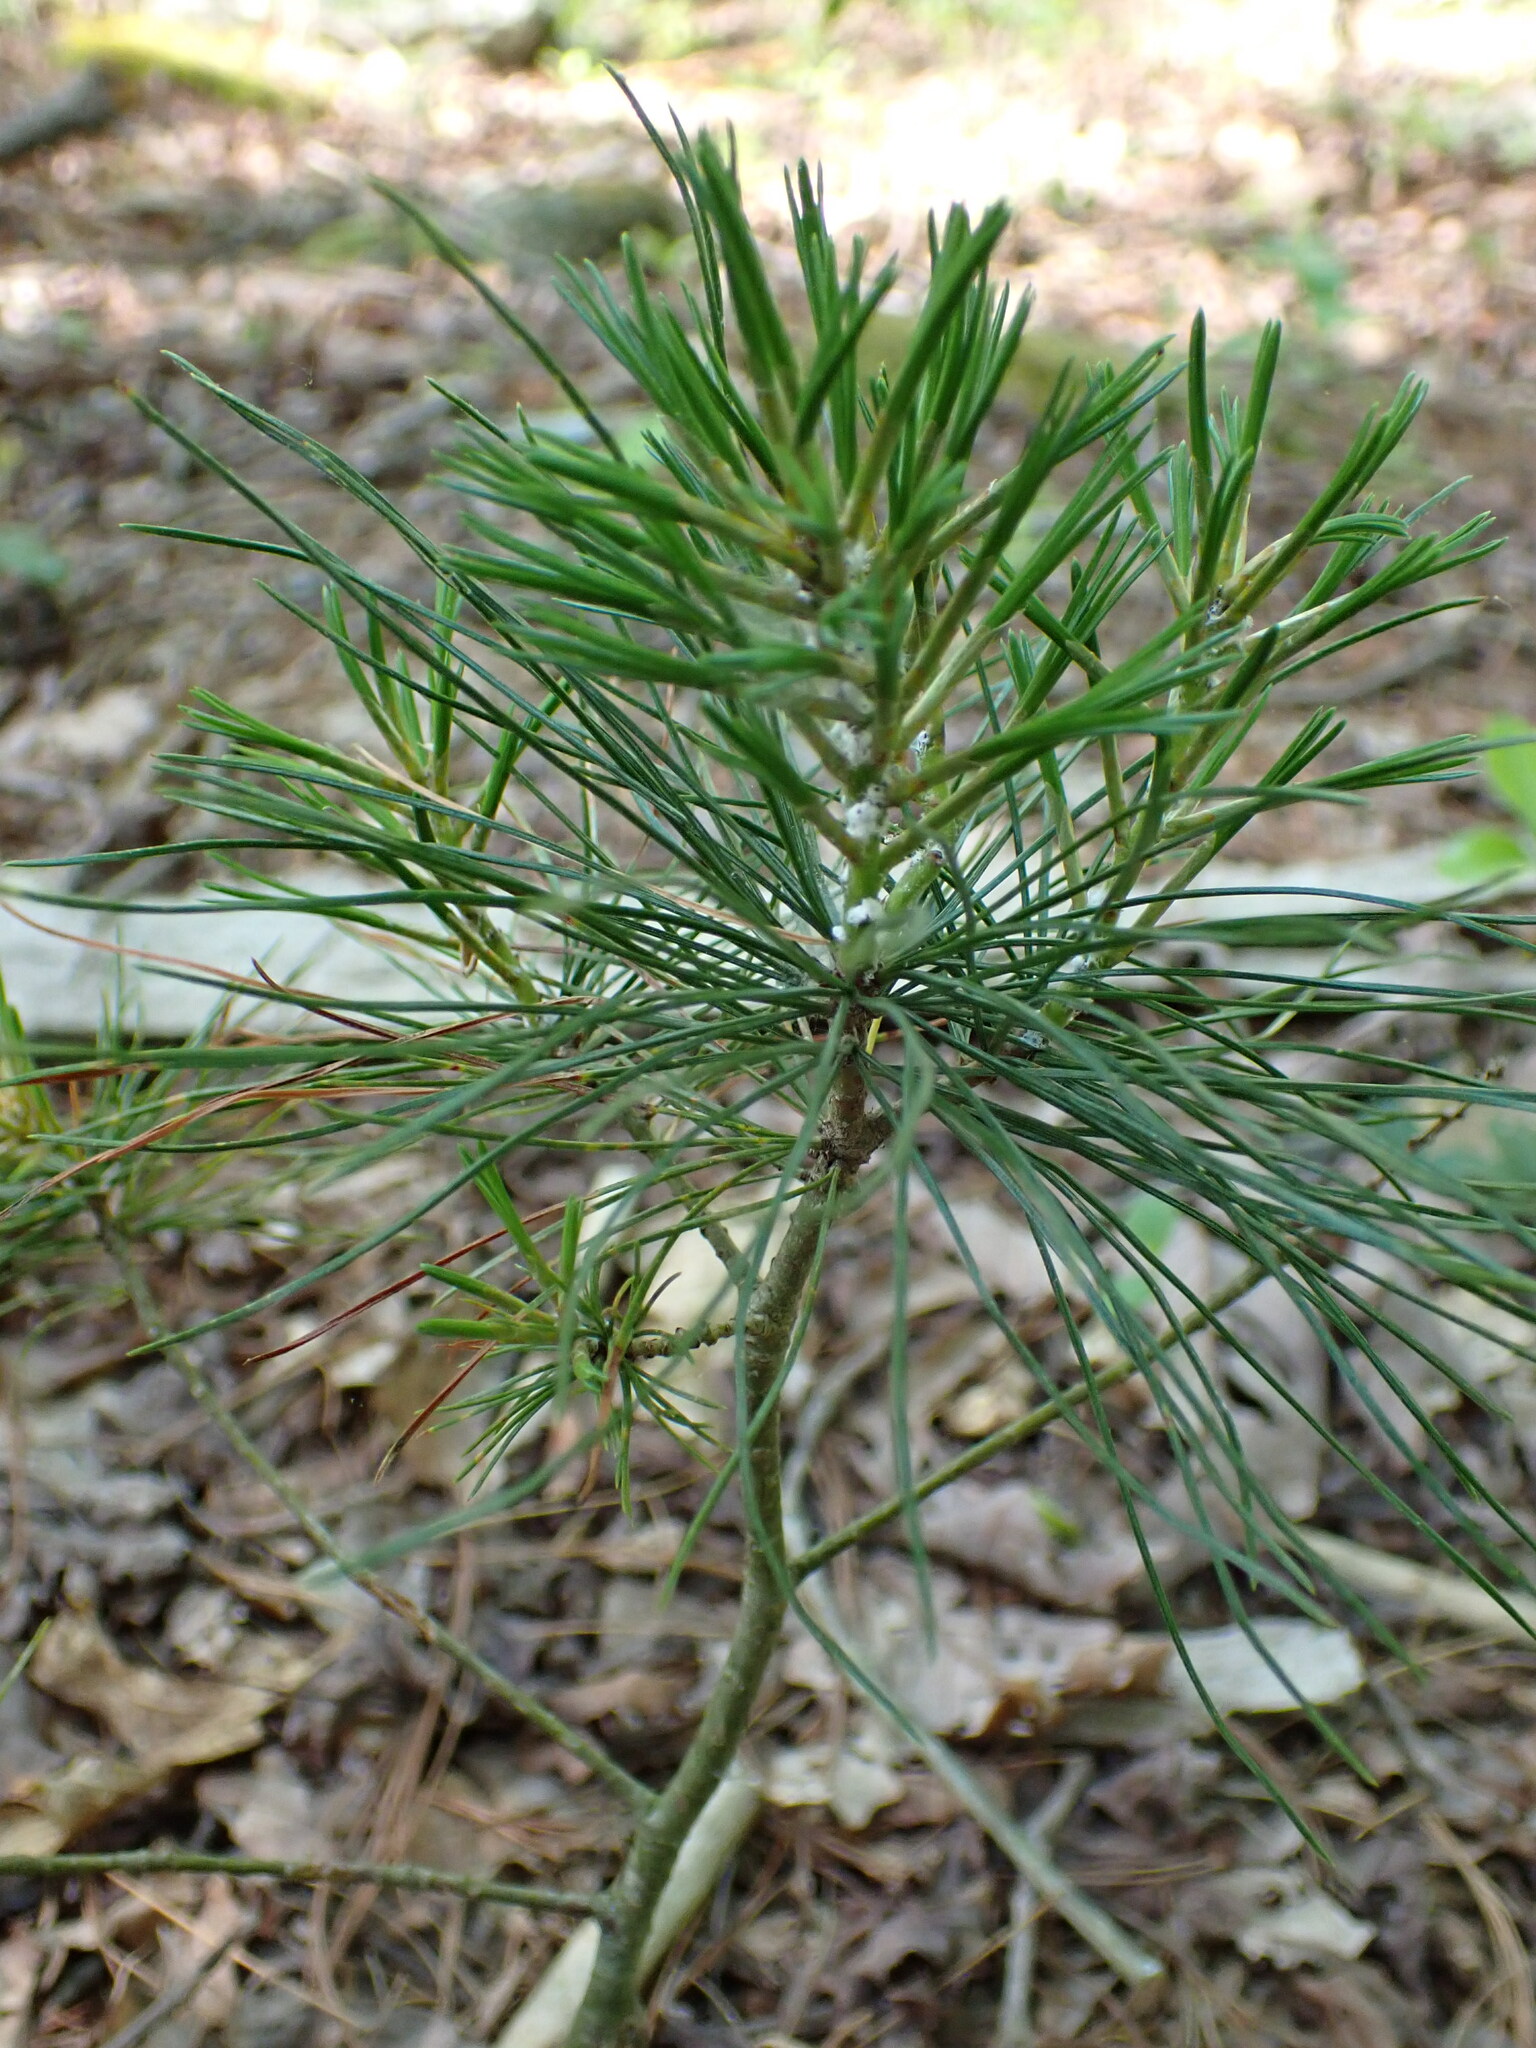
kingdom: Plantae
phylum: Tracheophyta
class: Pinopsida
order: Pinales
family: Pinaceae
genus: Pinus
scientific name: Pinus strobus
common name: Weymouth pine
